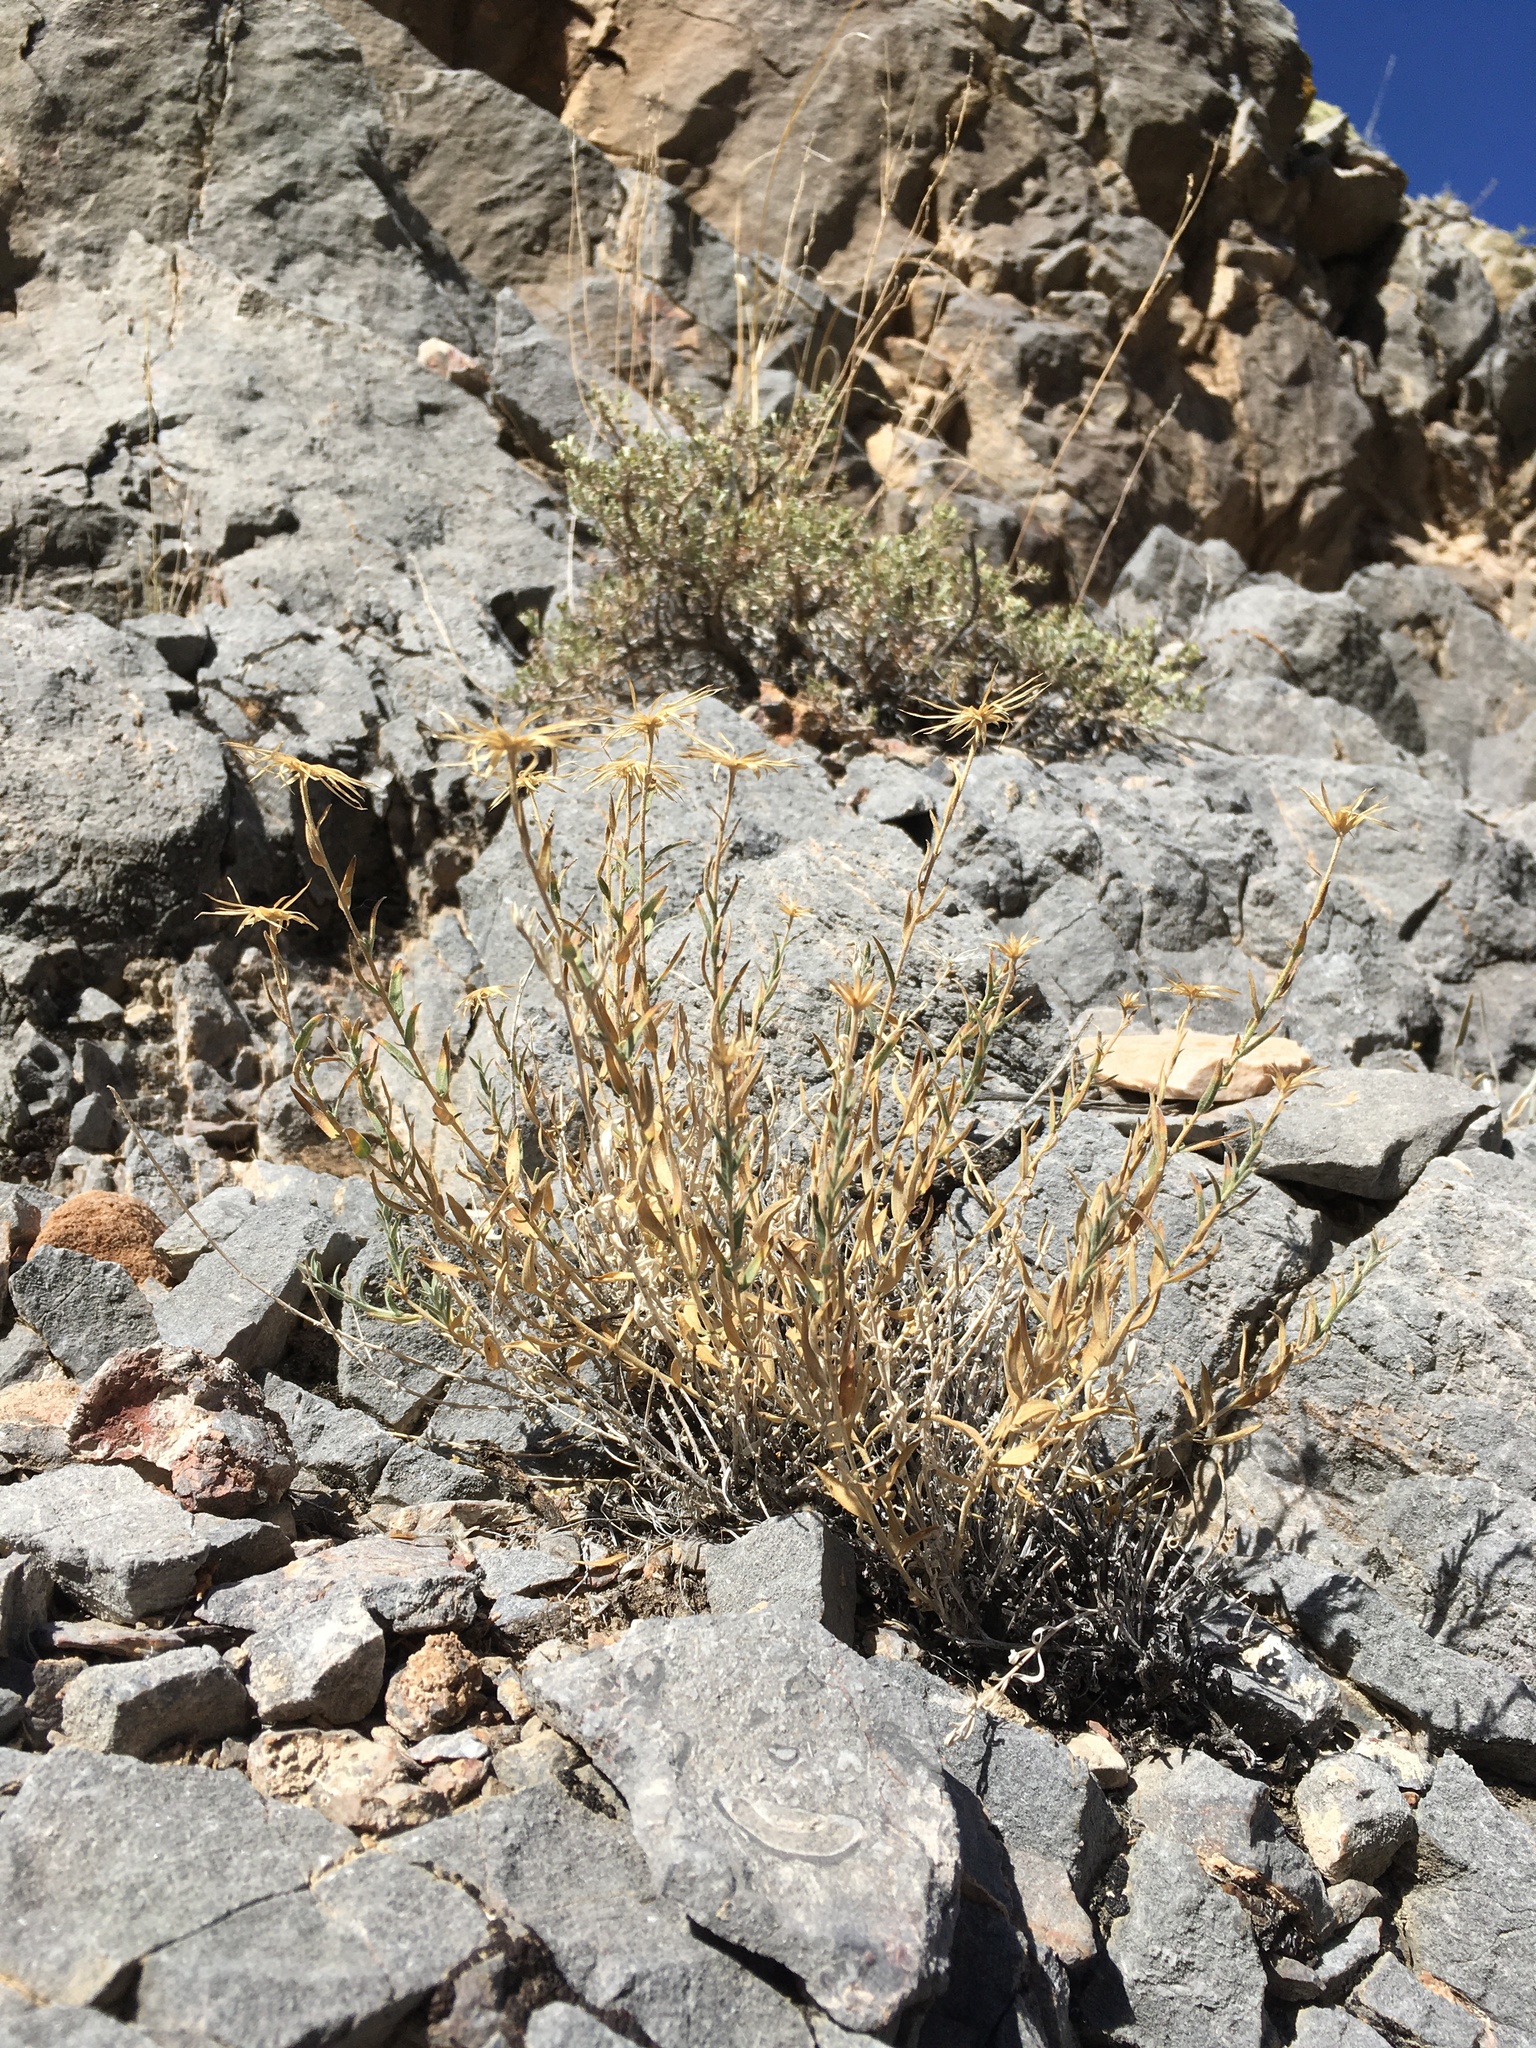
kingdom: Plantae
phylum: Tracheophyta
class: Magnoliopsida
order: Asterales
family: Asteraceae
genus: Xylorhiza
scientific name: Xylorhiza tortifolia
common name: Hurt-leaf woody-aster
